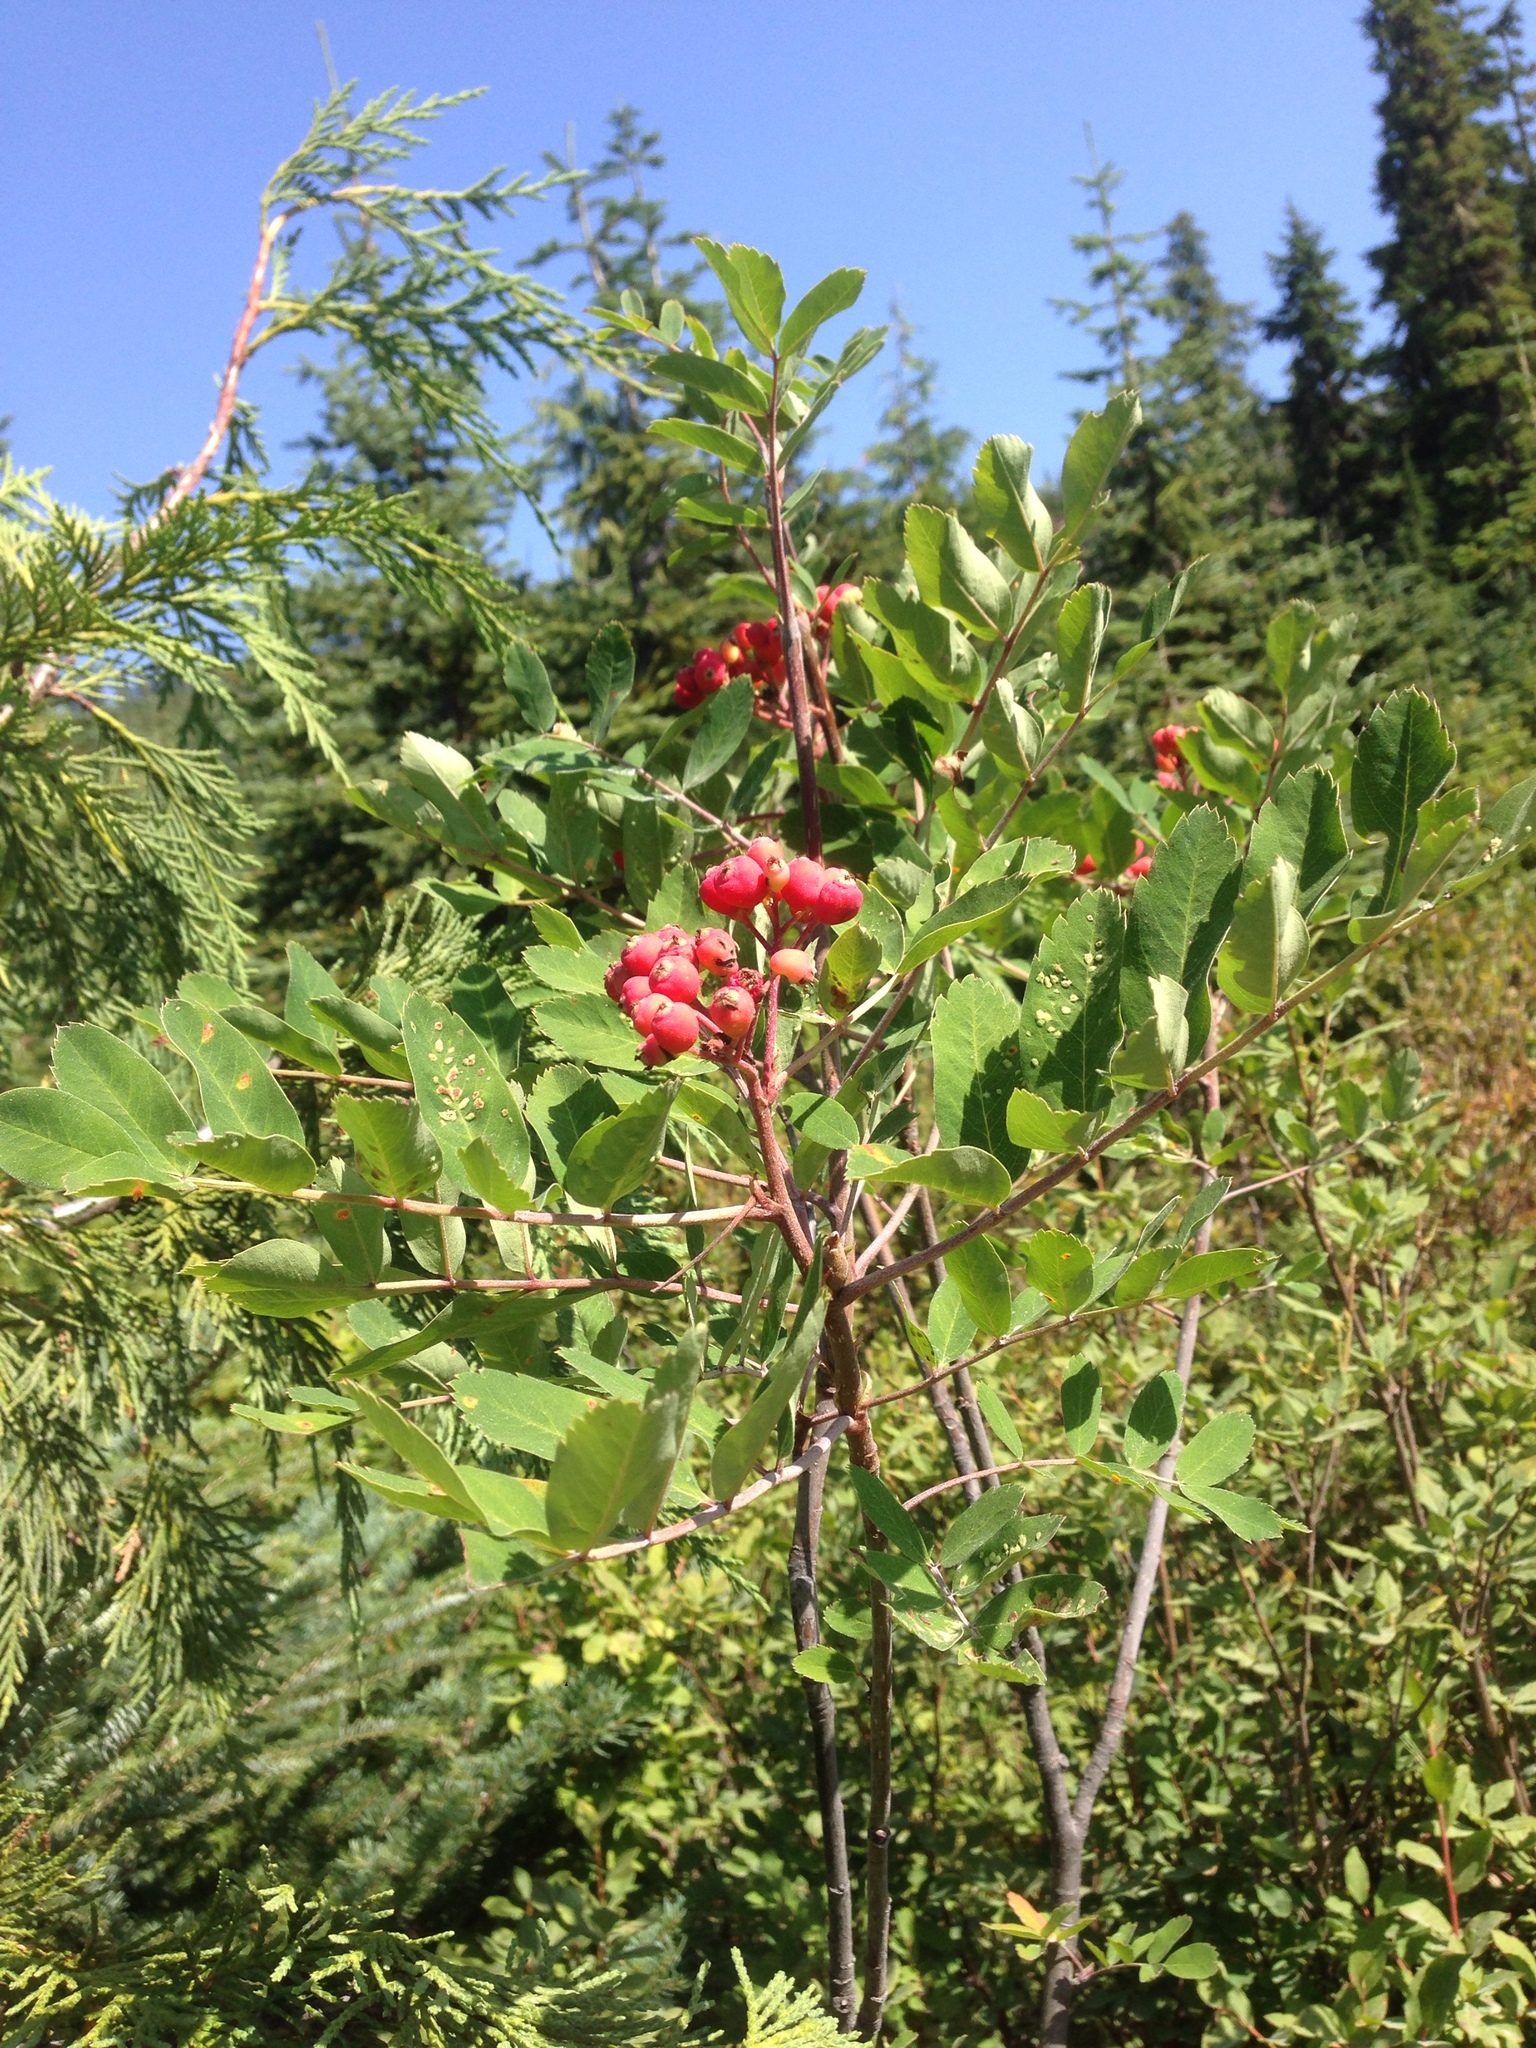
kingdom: Plantae
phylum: Tracheophyta
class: Magnoliopsida
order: Rosales
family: Rosaceae
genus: Sorbus
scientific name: Sorbus sitchensis
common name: Sitka mountain-ash
